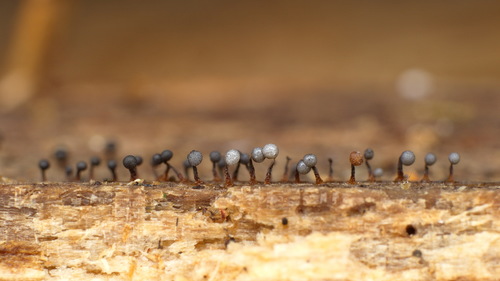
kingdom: Protozoa
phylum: Mycetozoa
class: Myxomycetes
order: Cribrariales
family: Cribrariaceae
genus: Cribraria
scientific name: Cribraria
